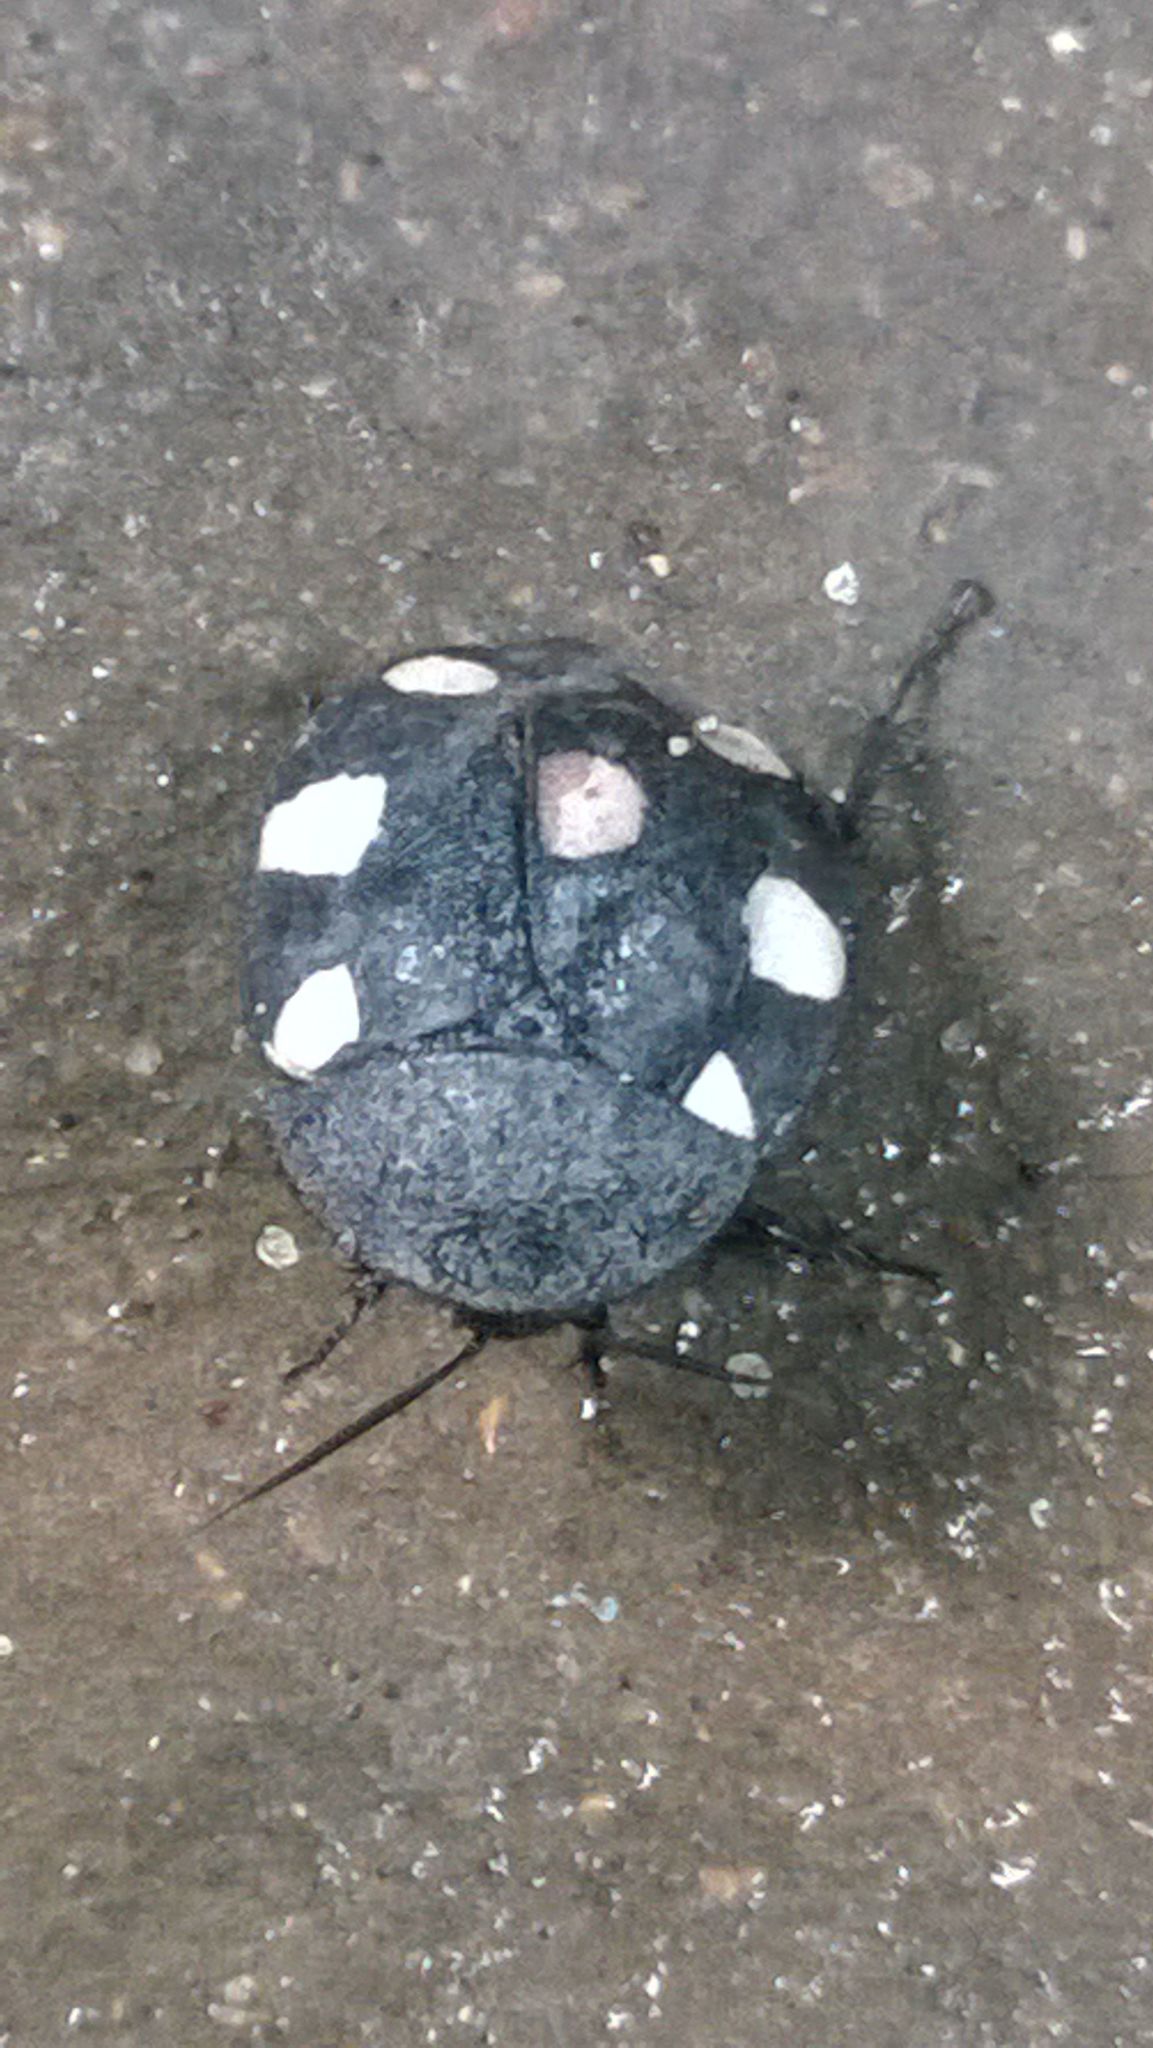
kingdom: Animalia
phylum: Arthropoda
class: Insecta
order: Blattodea
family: Corydiidae
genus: Therea
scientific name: Therea petiveriana
